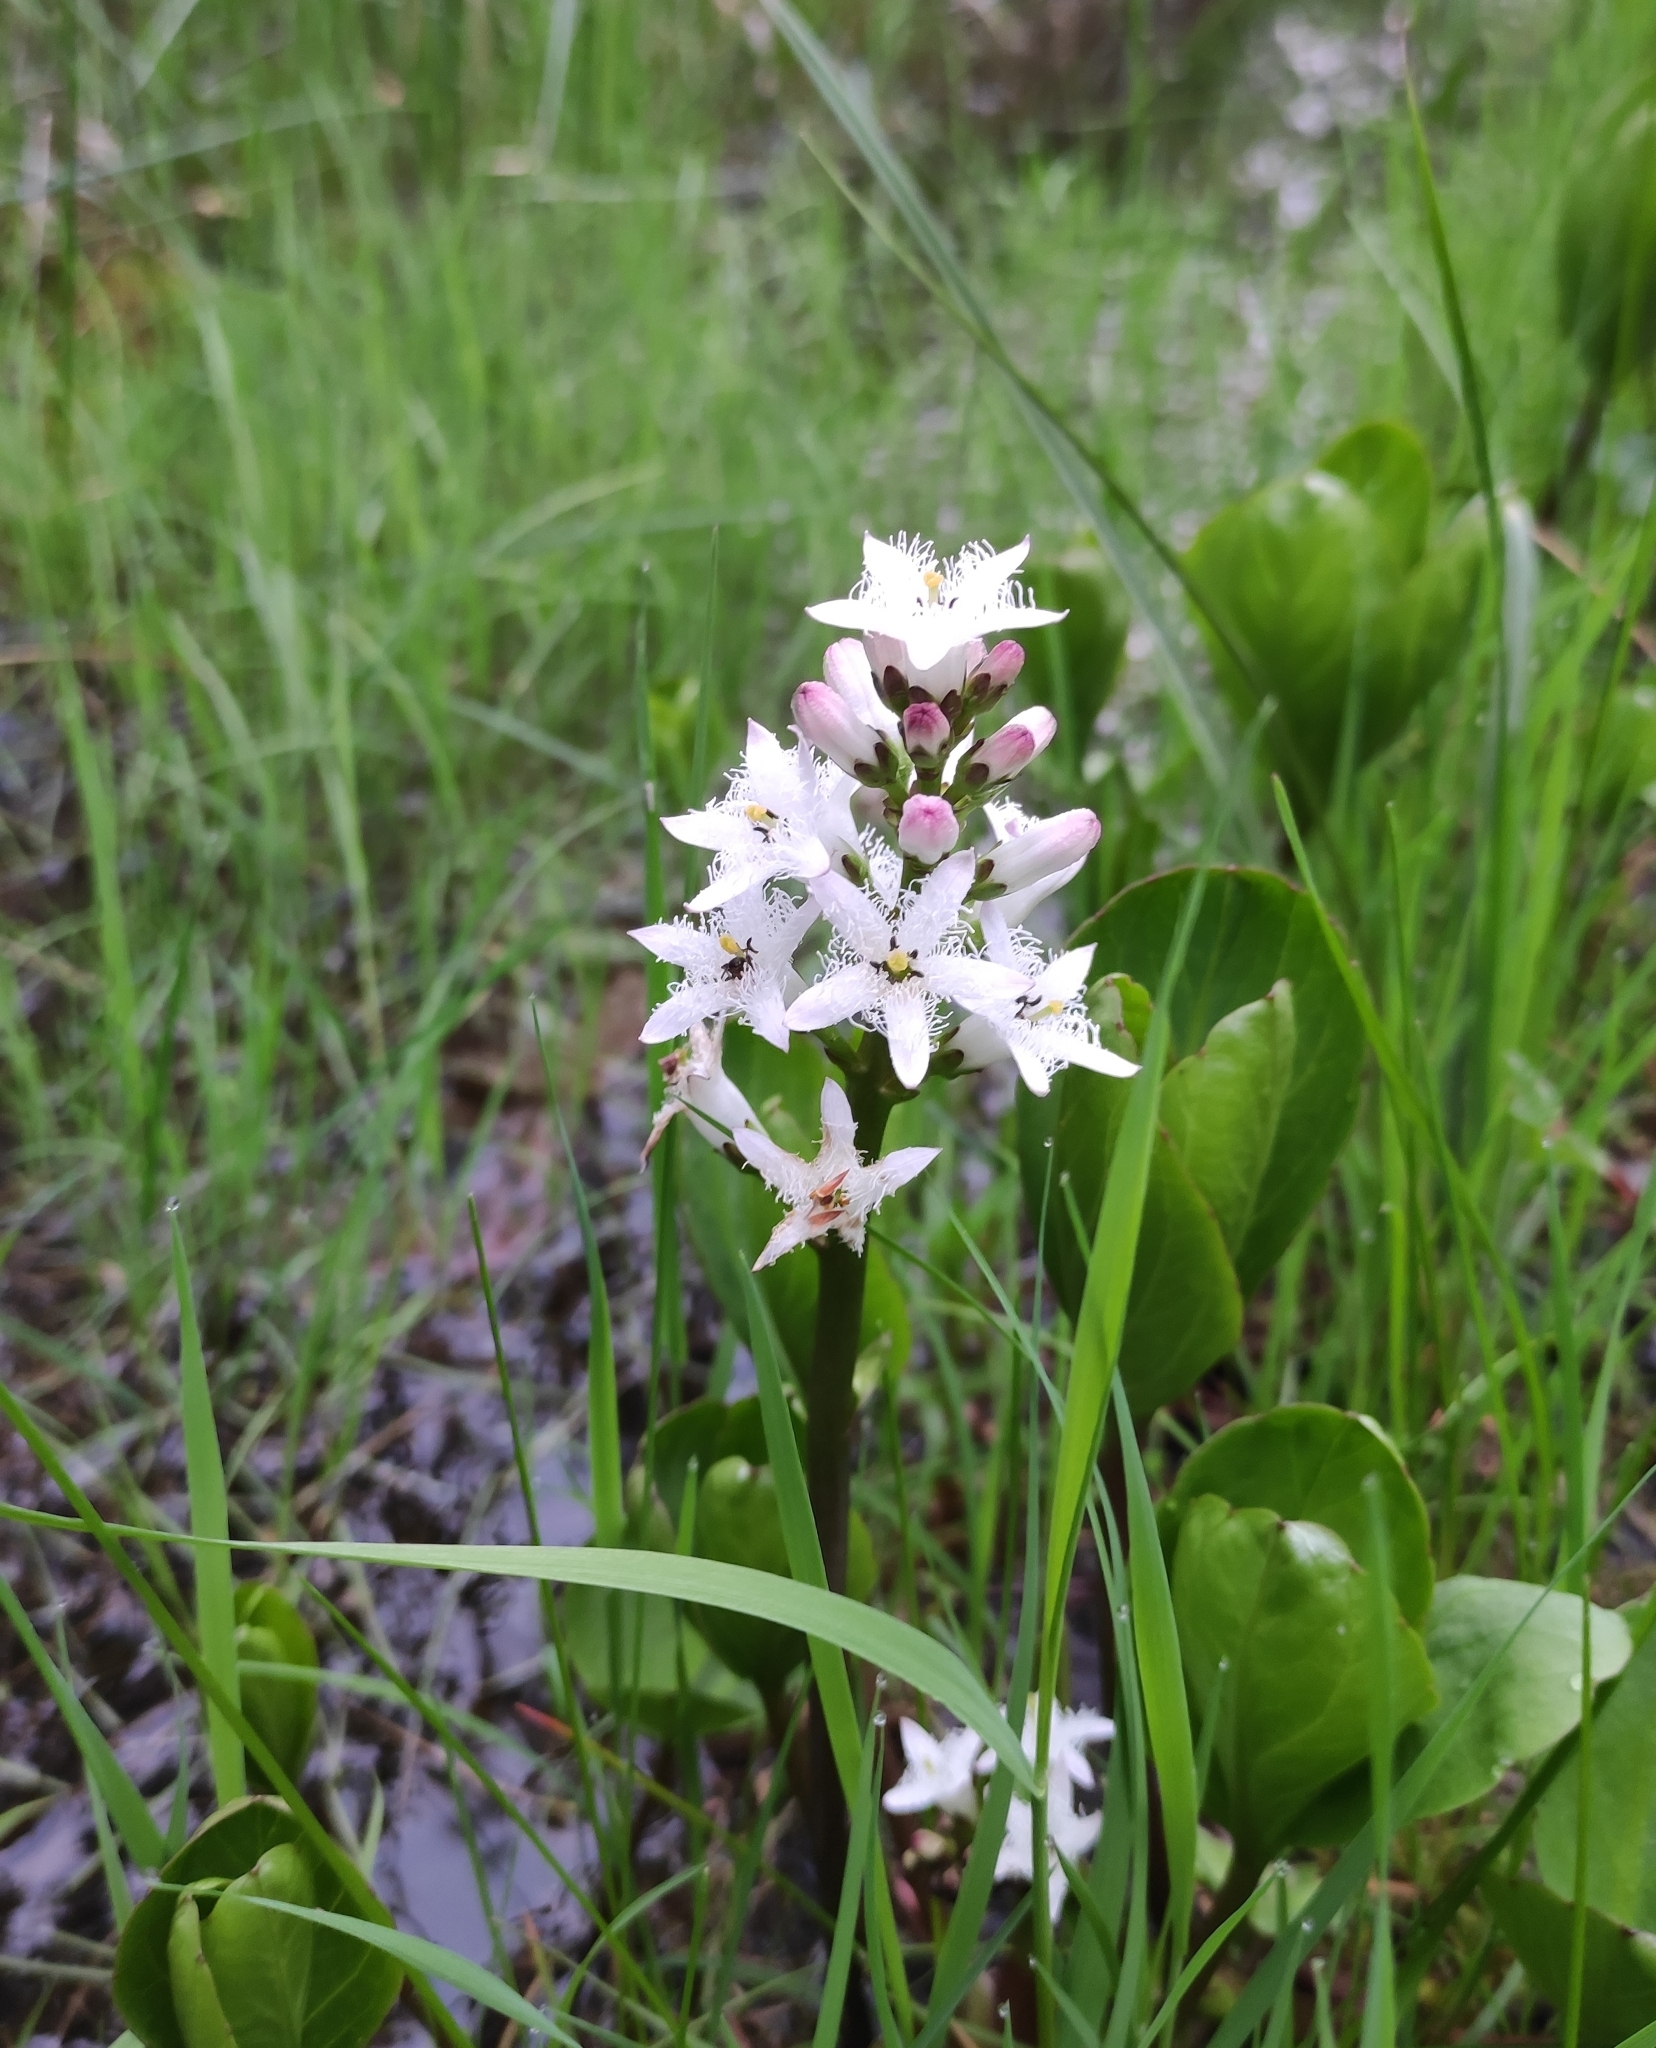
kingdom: Plantae
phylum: Tracheophyta
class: Magnoliopsida
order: Asterales
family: Menyanthaceae
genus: Menyanthes
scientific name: Menyanthes trifoliata
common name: Bogbean
